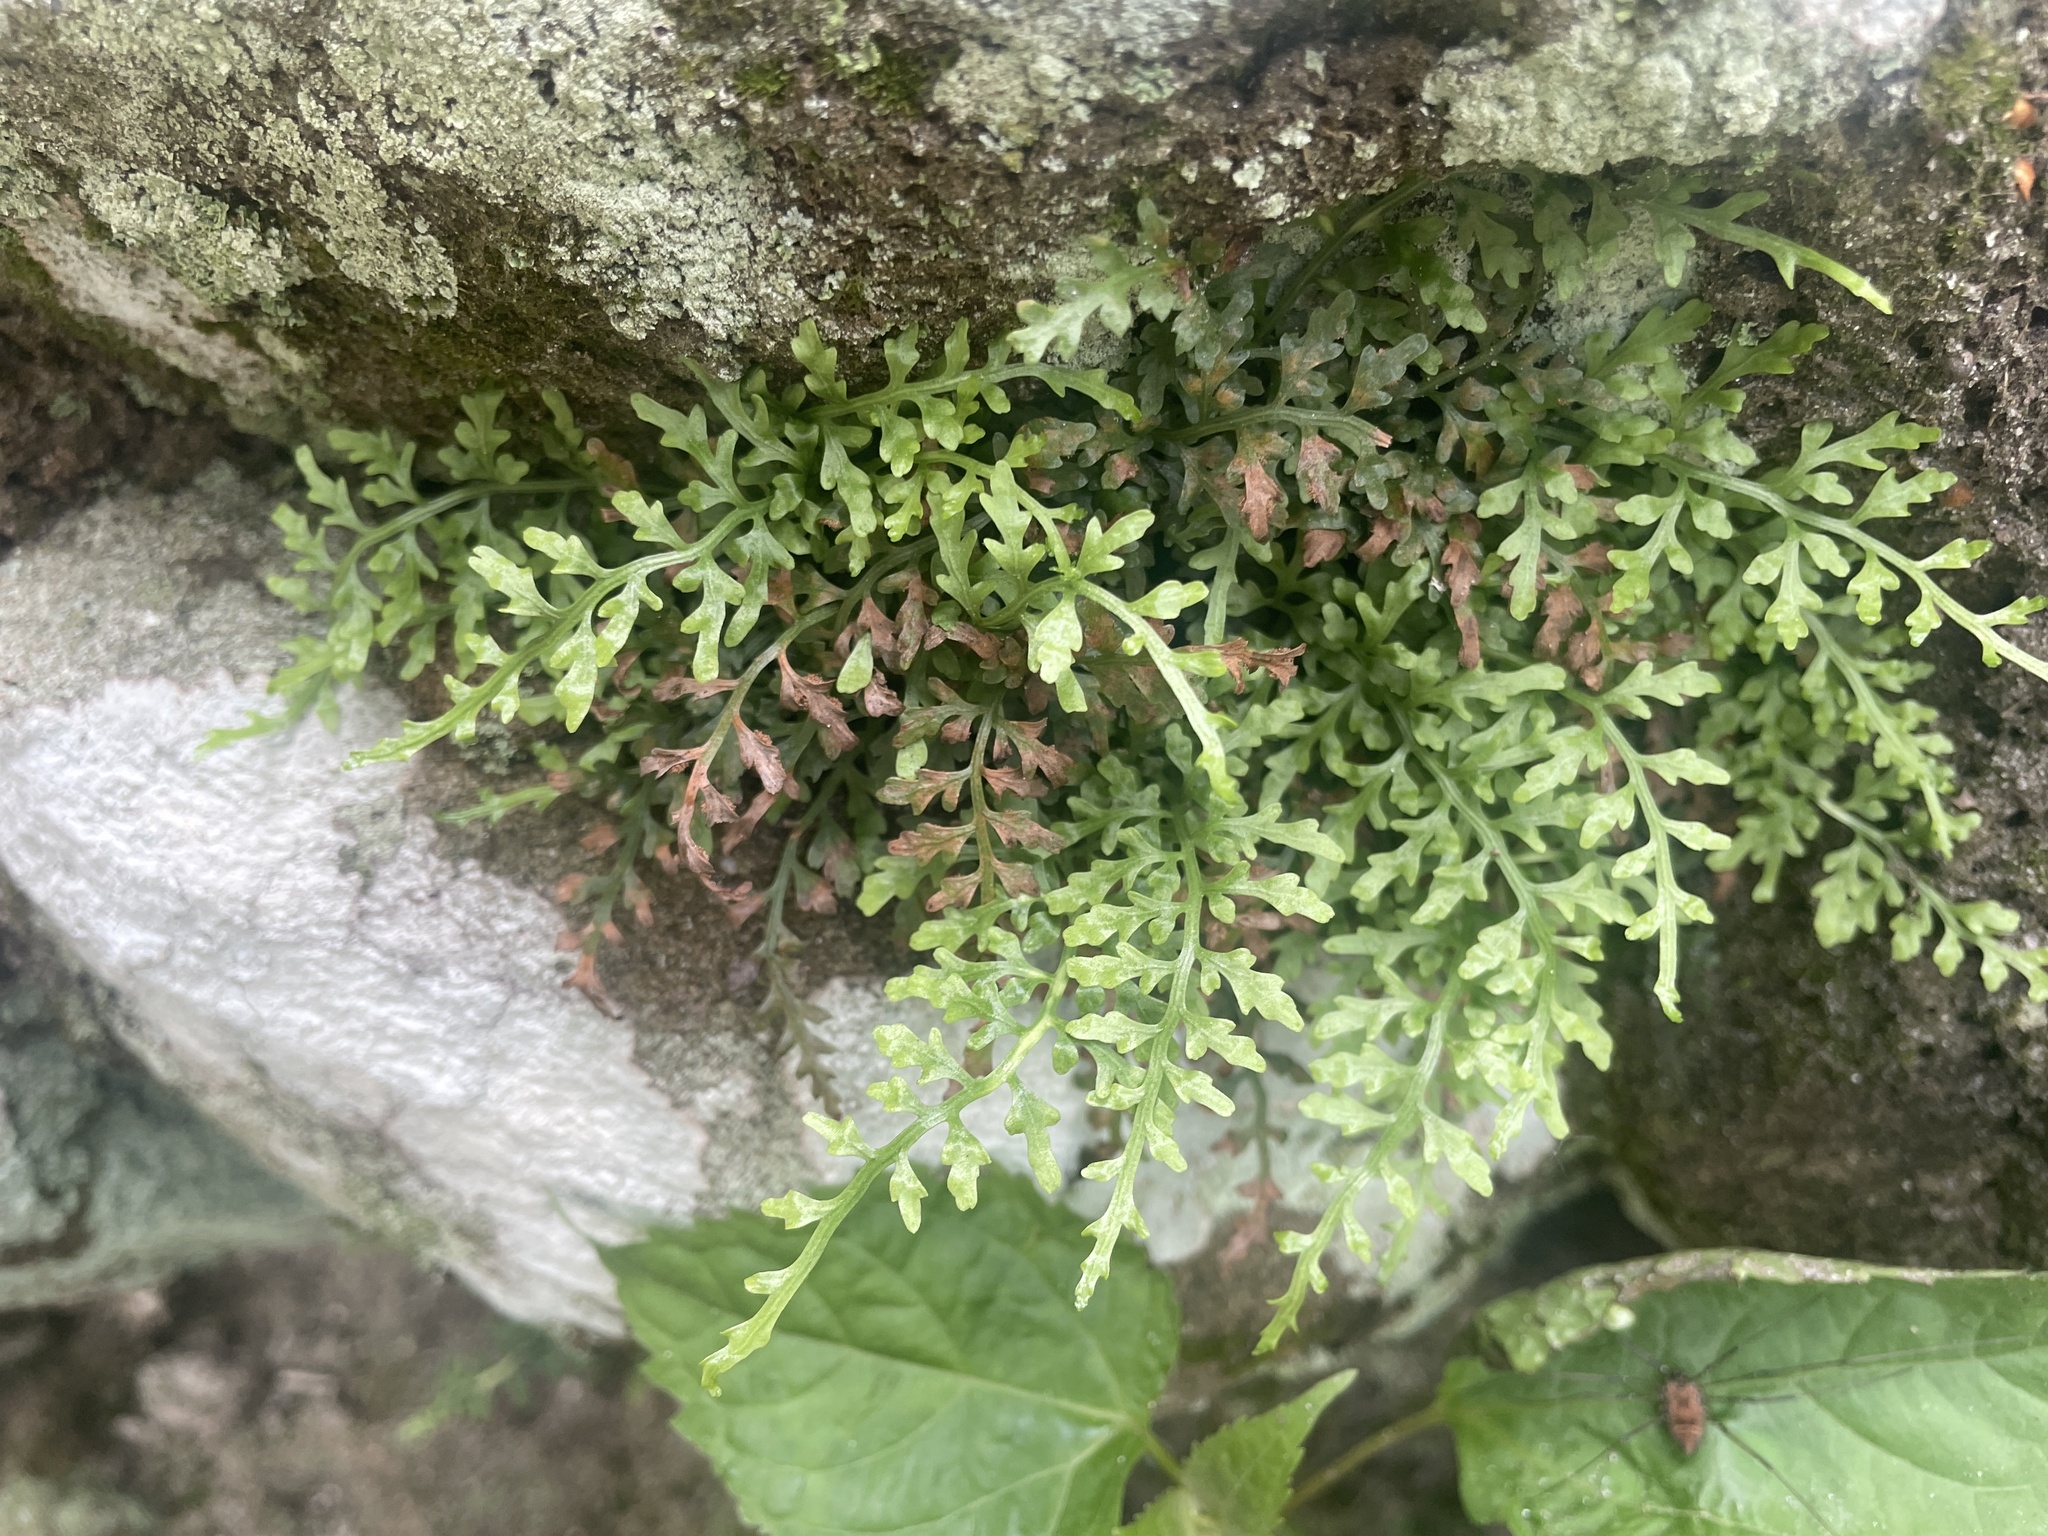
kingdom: Plantae
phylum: Tracheophyta
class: Polypodiopsida
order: Polypodiales
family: Aspleniaceae
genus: Asplenium
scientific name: Asplenium montanum
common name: Mountain spleenwort
